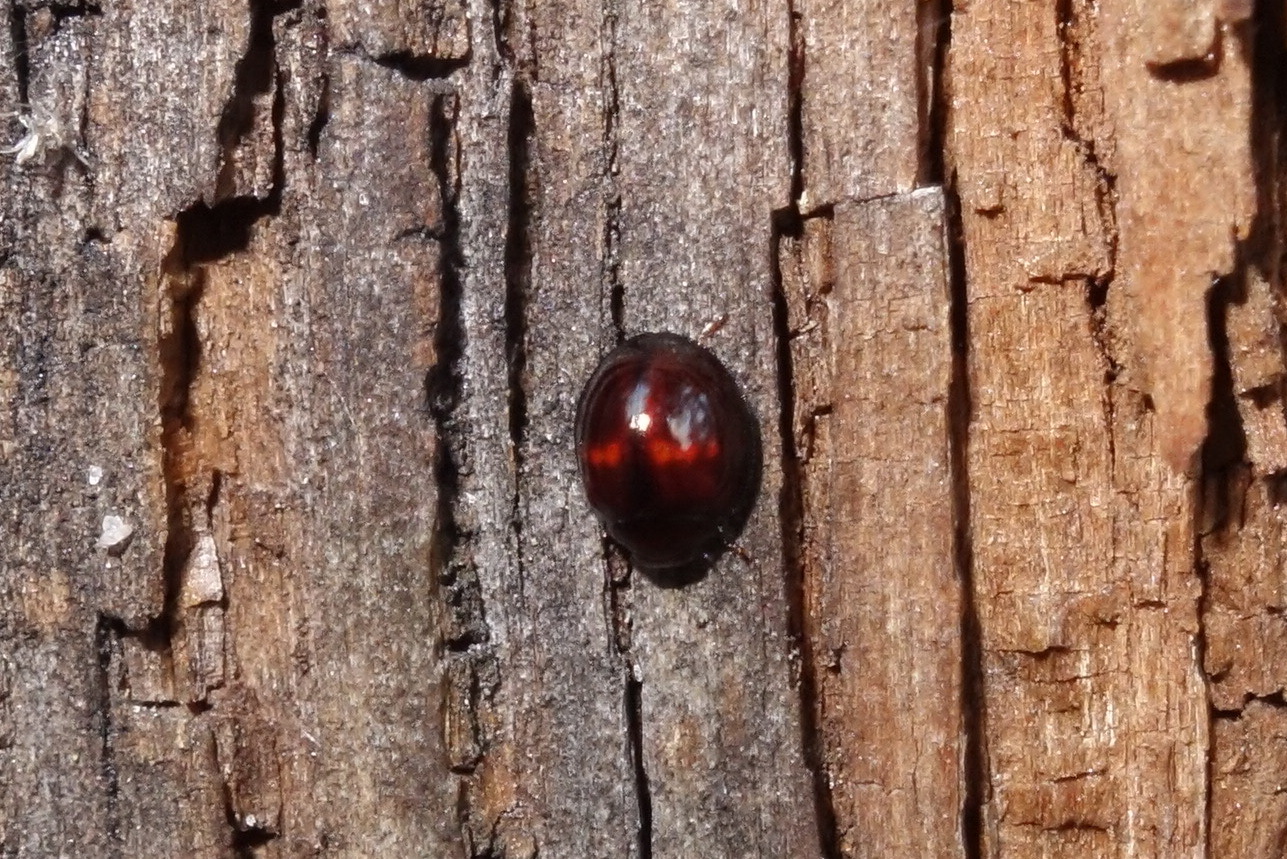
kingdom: Animalia
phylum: Arthropoda
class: Insecta
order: Coleoptera
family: Coccinellidae
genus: Chilocorus
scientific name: Chilocorus bipustulatus
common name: Heather ladybird
